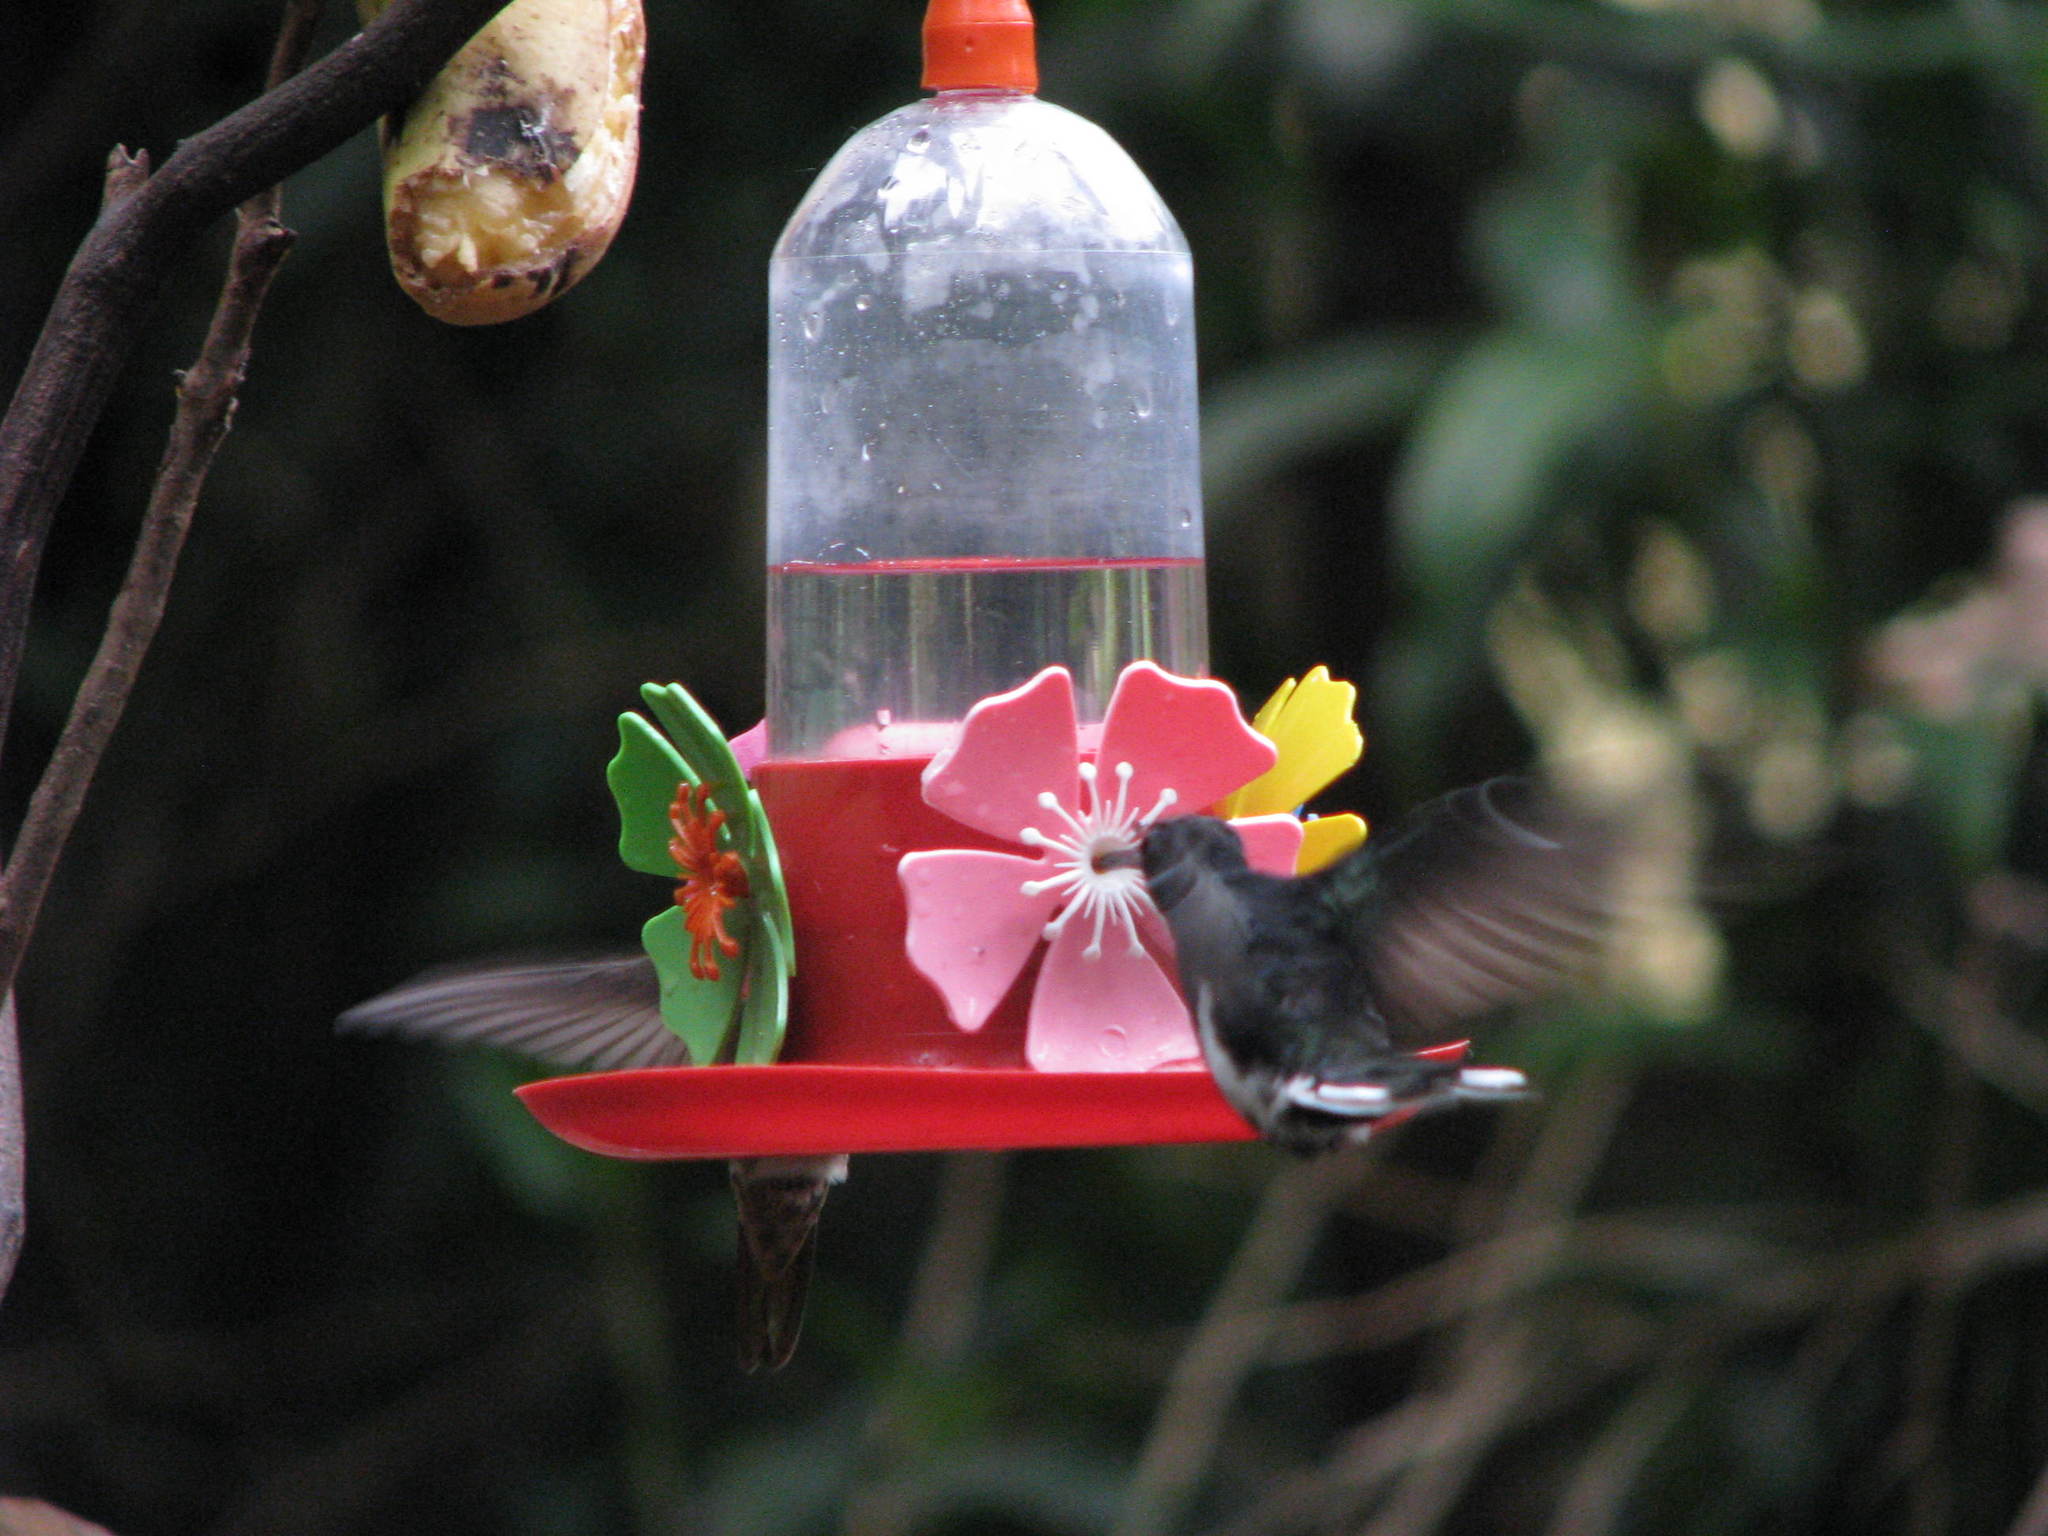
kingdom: Animalia
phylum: Chordata
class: Aves
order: Apodiformes
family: Trochilidae
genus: Florisuga
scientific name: Florisuga fusca
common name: Black jacobin
